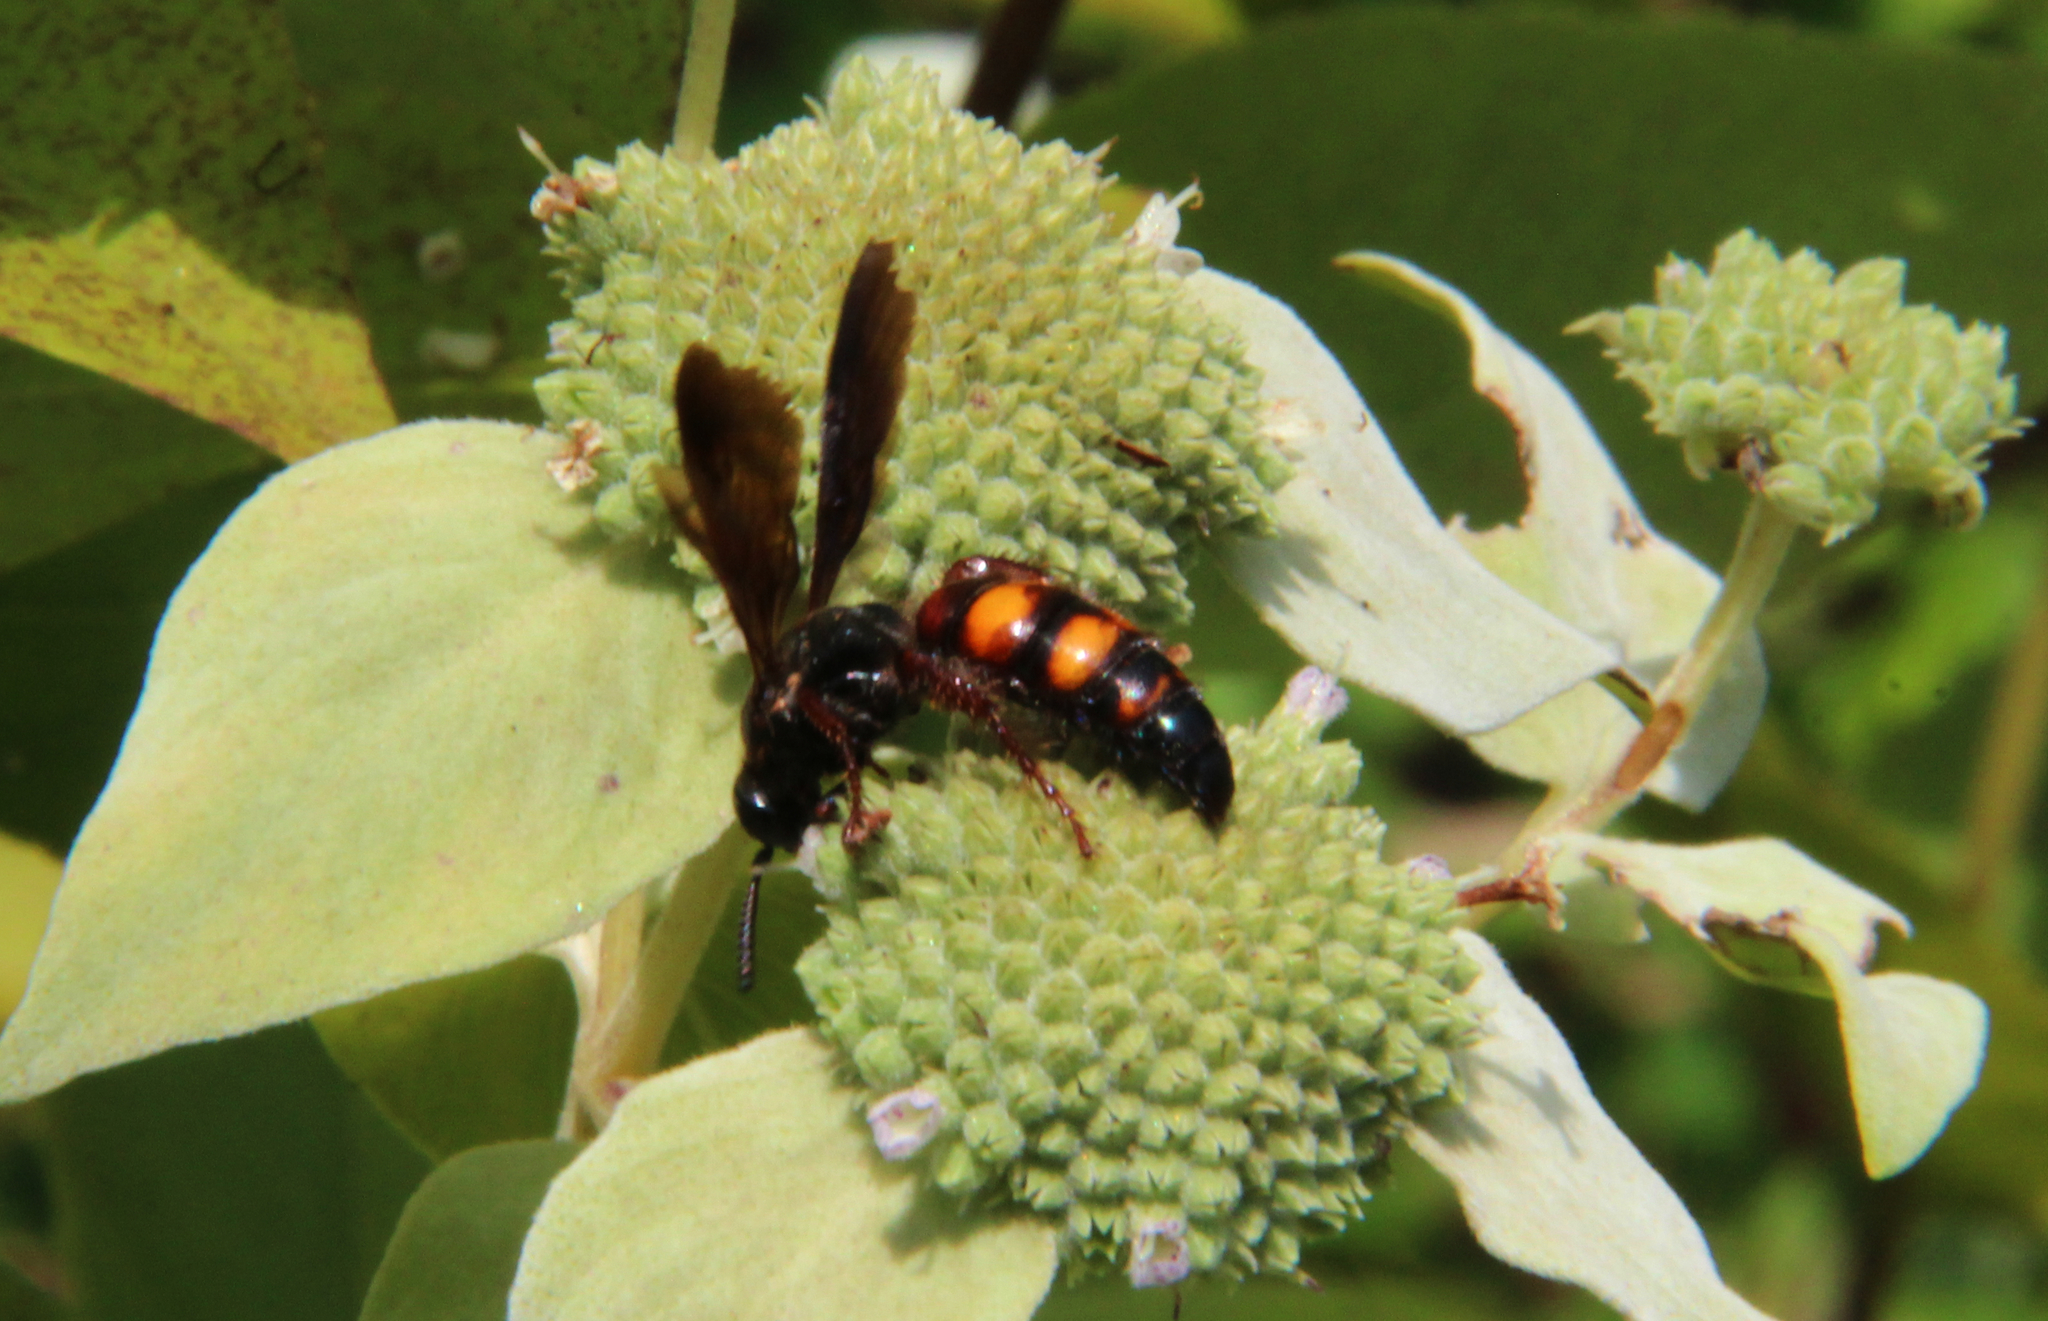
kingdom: Animalia
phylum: Arthropoda
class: Insecta
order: Hymenoptera
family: Scoliidae
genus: Scolia
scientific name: Scolia nobilitata
